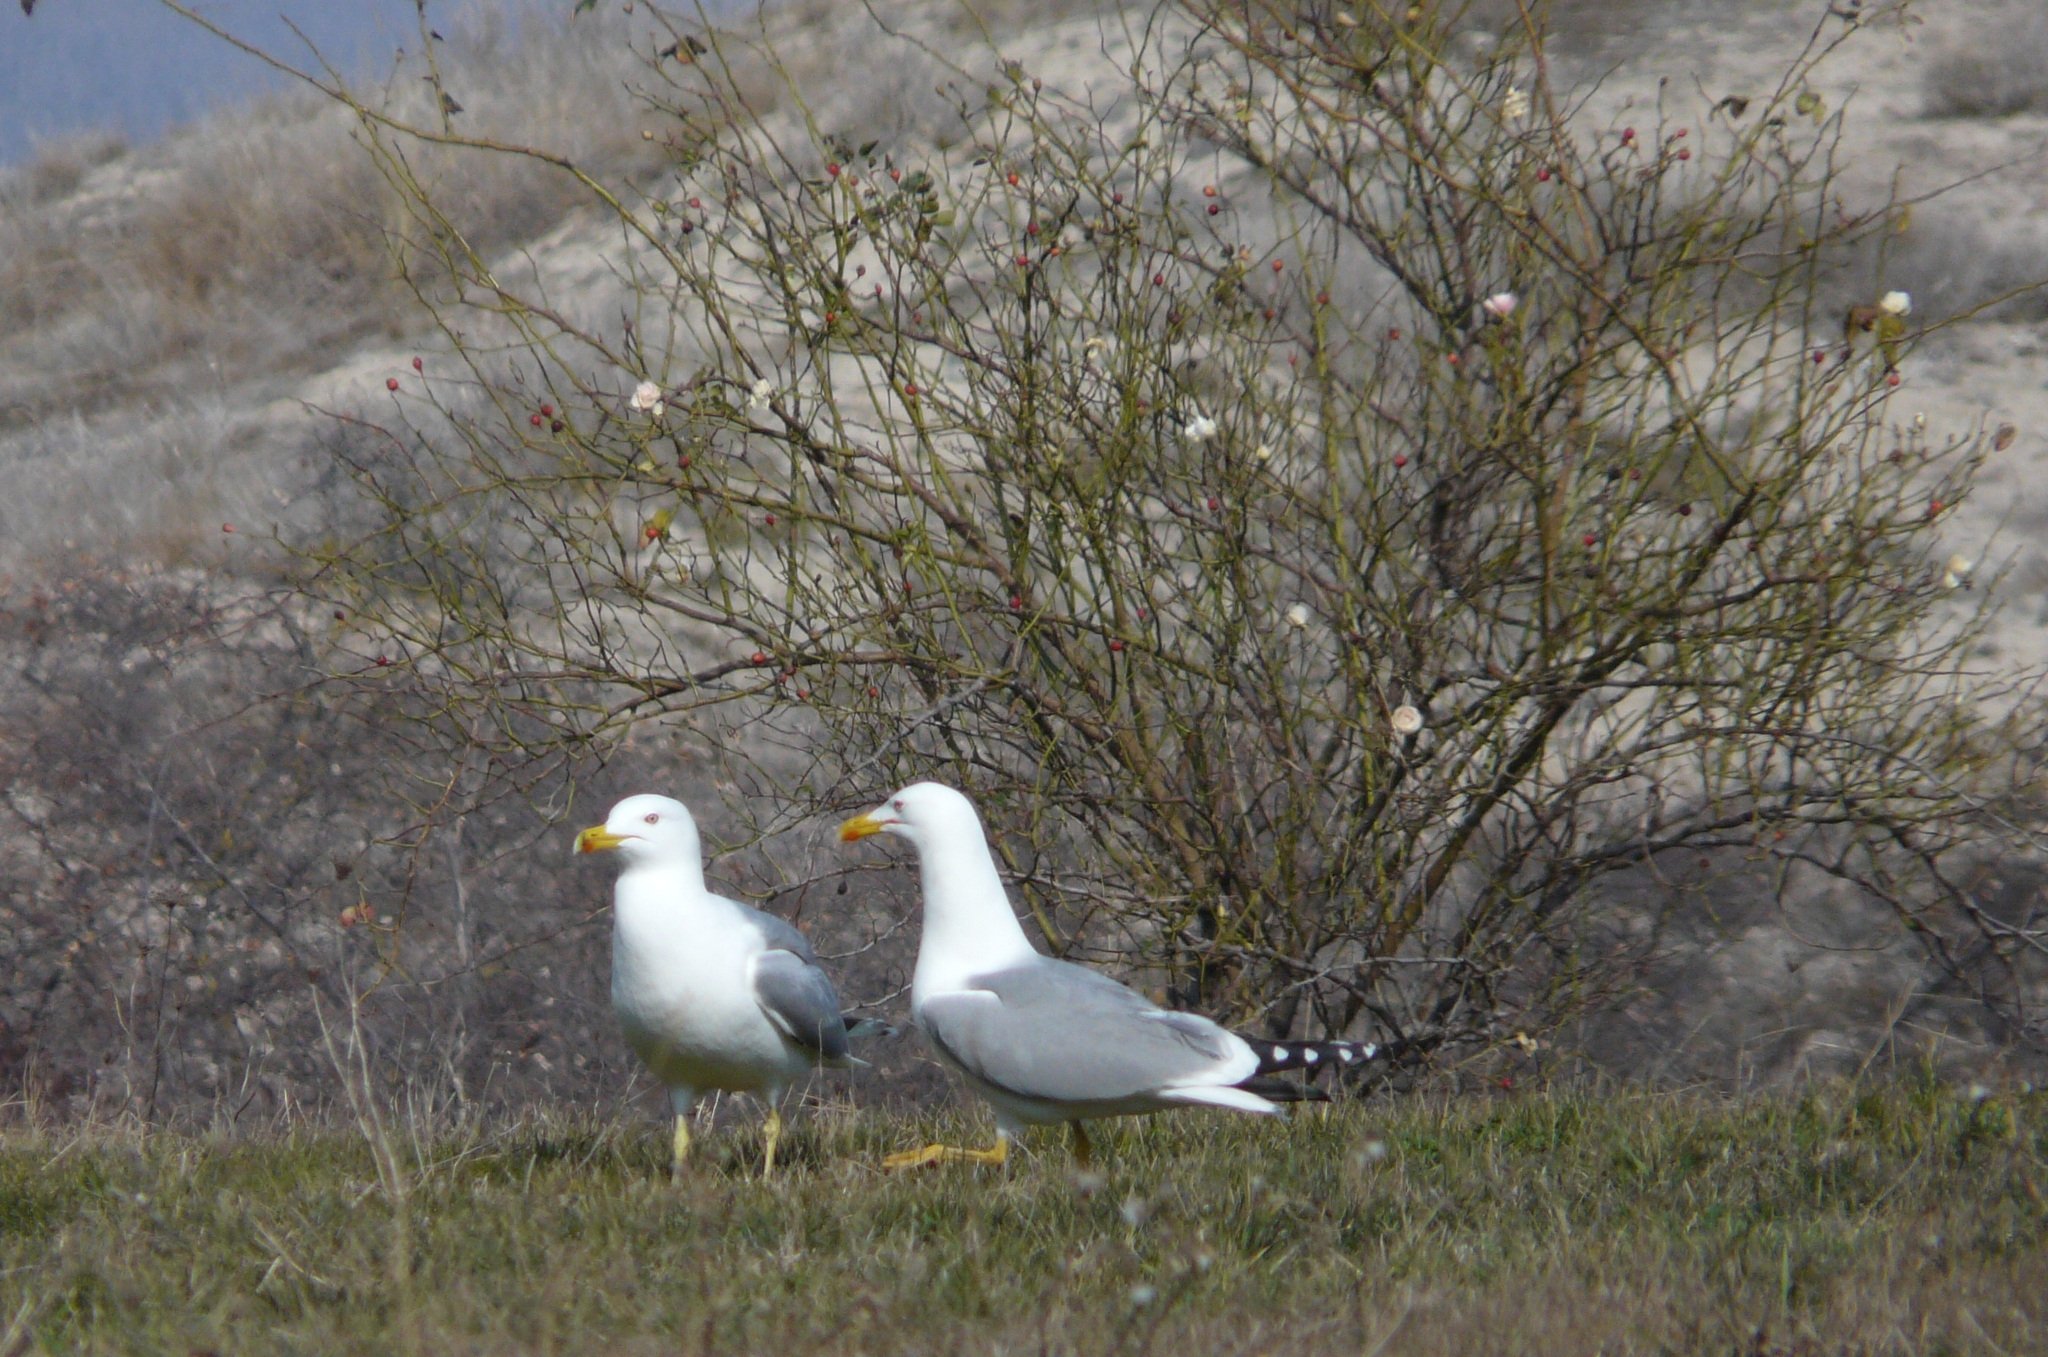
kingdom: Animalia
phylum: Chordata
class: Aves
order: Charadriiformes
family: Laridae
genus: Larus
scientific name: Larus michahellis
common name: Yellow-legged gull
